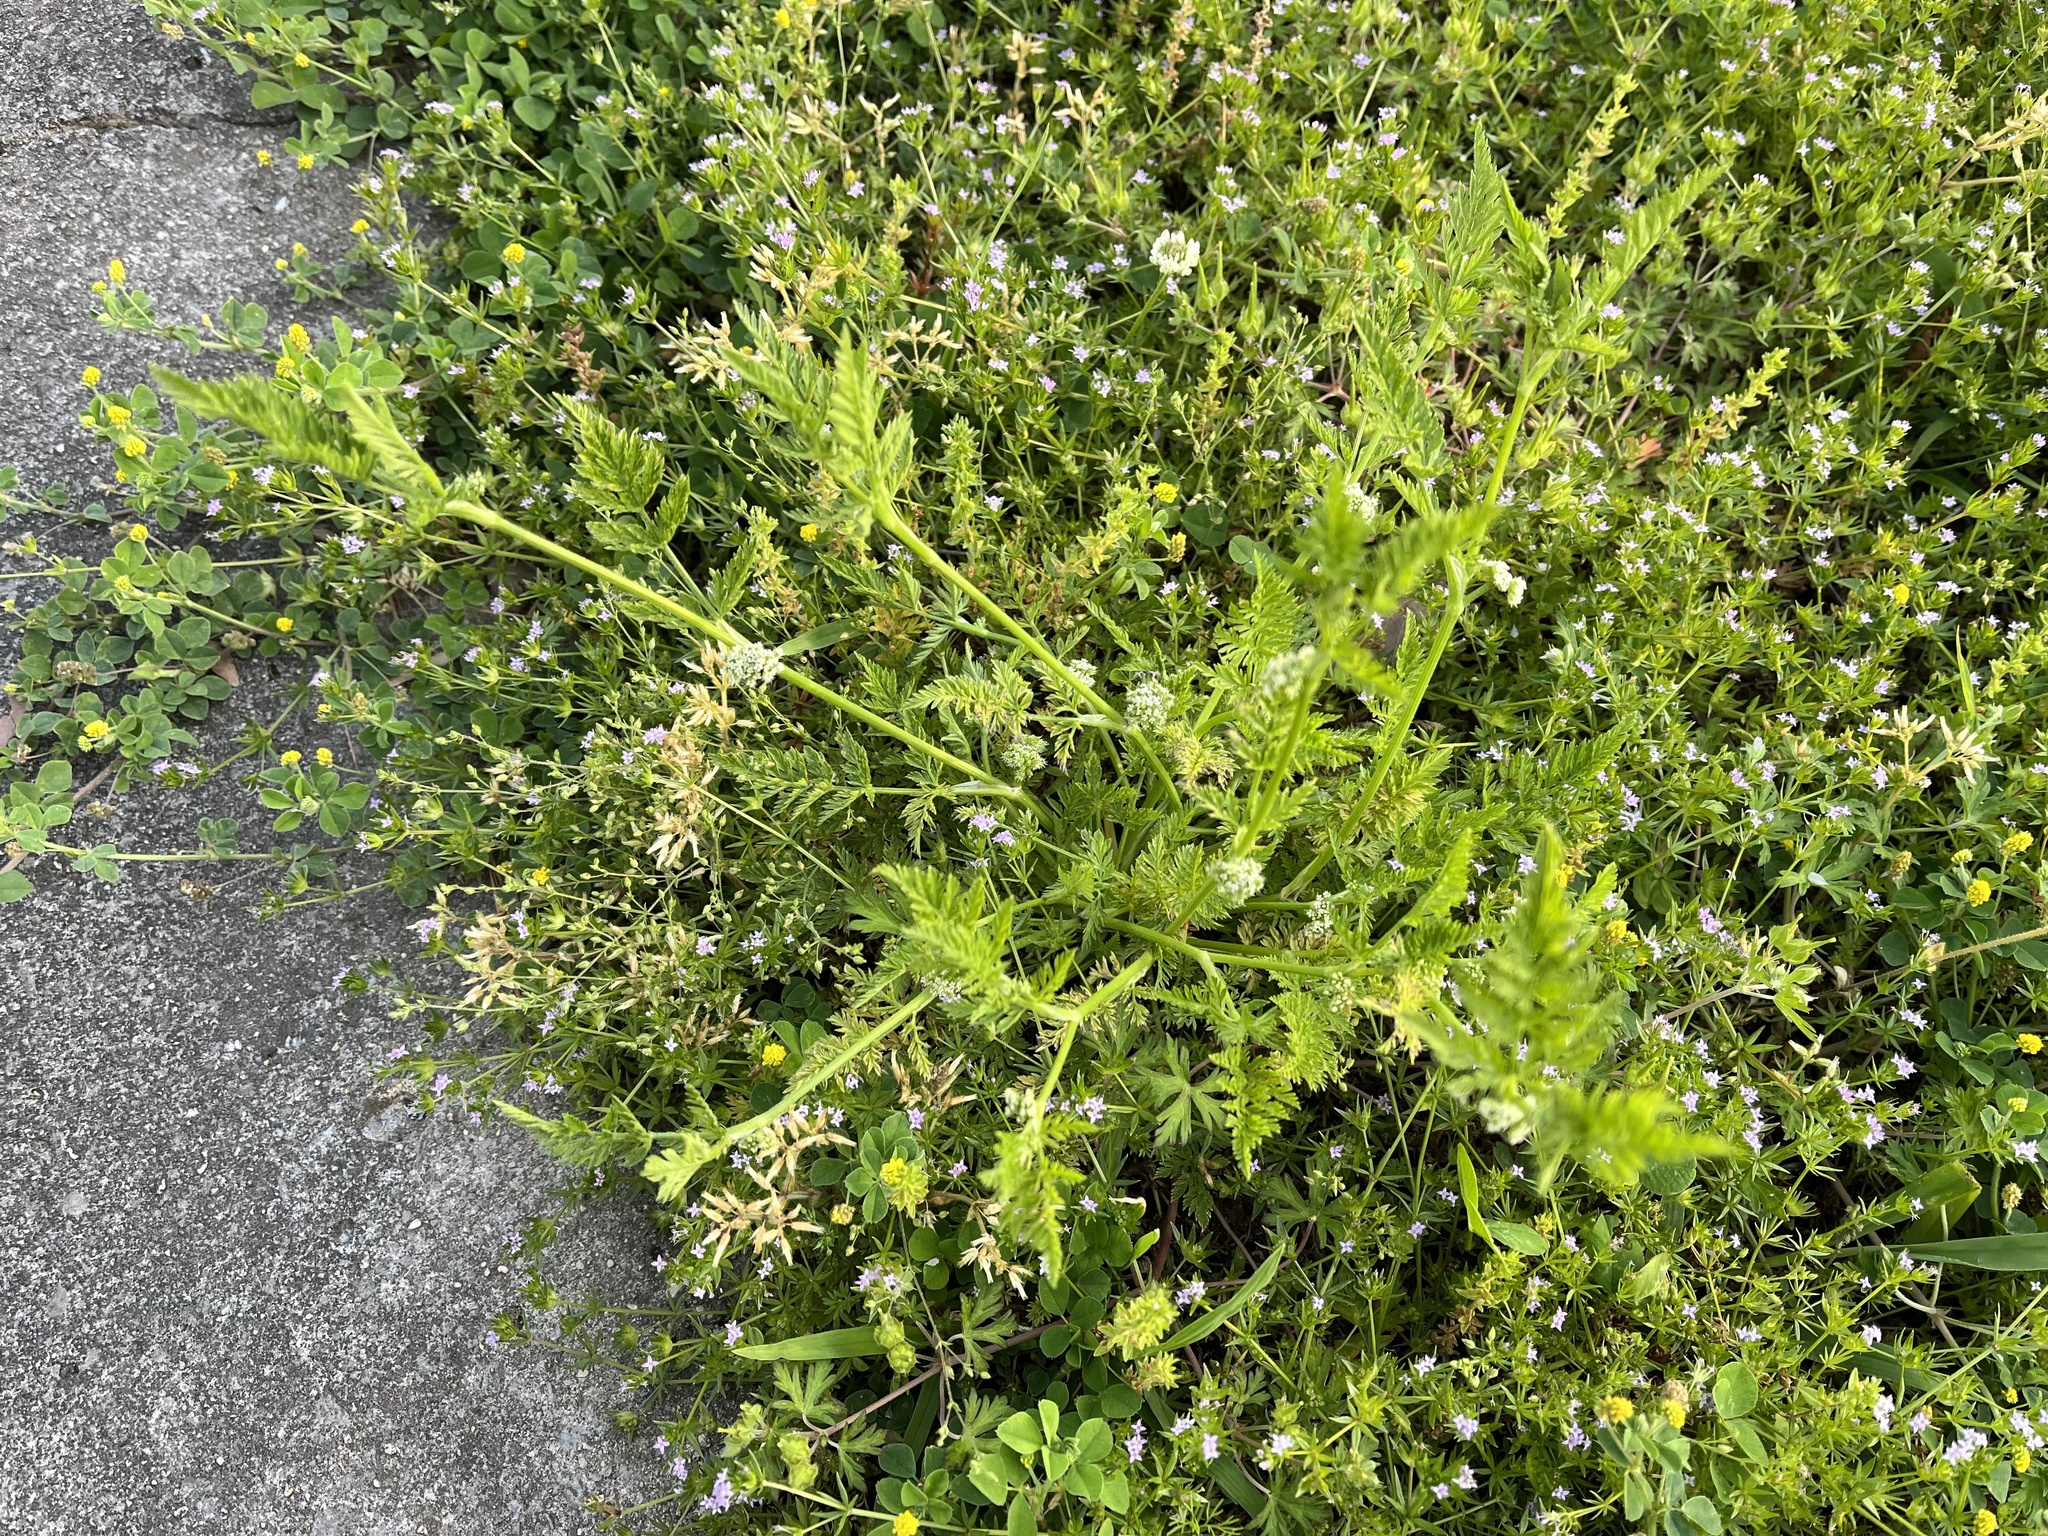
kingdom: Plantae
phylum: Tracheophyta
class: Magnoliopsida
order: Apiales
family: Apiaceae
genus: Torilis
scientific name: Torilis nodosa
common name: Knotted hedge-parsley
